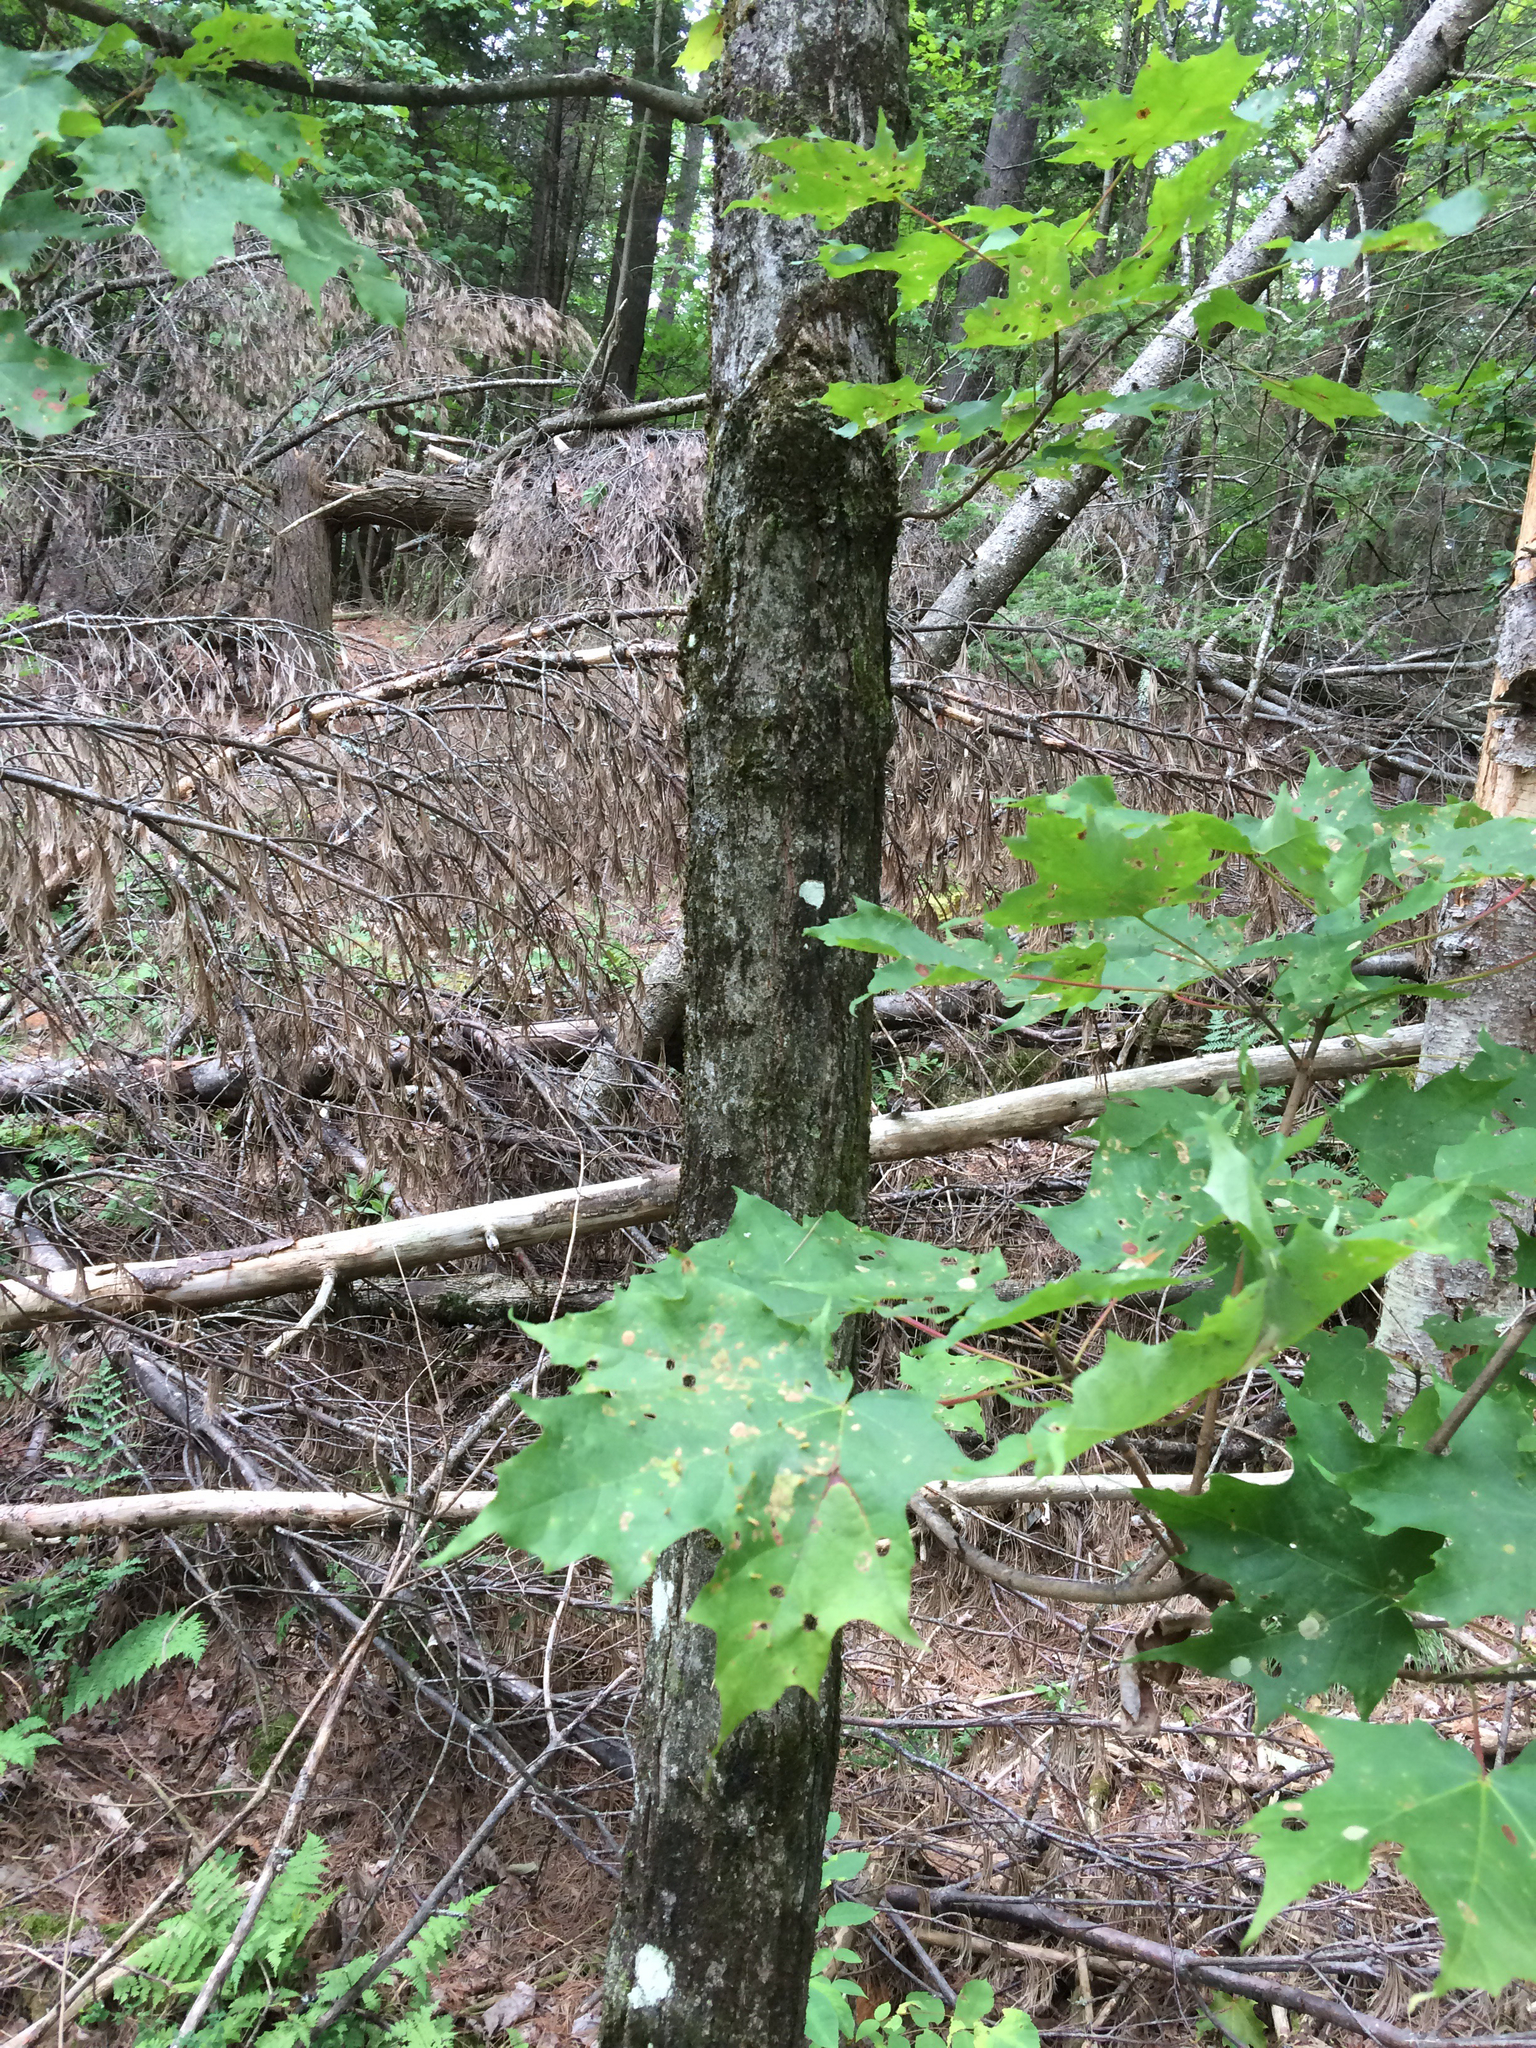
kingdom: Plantae
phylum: Tracheophyta
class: Magnoliopsida
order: Sapindales
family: Sapindaceae
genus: Acer
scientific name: Acer saccharum
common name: Sugar maple
